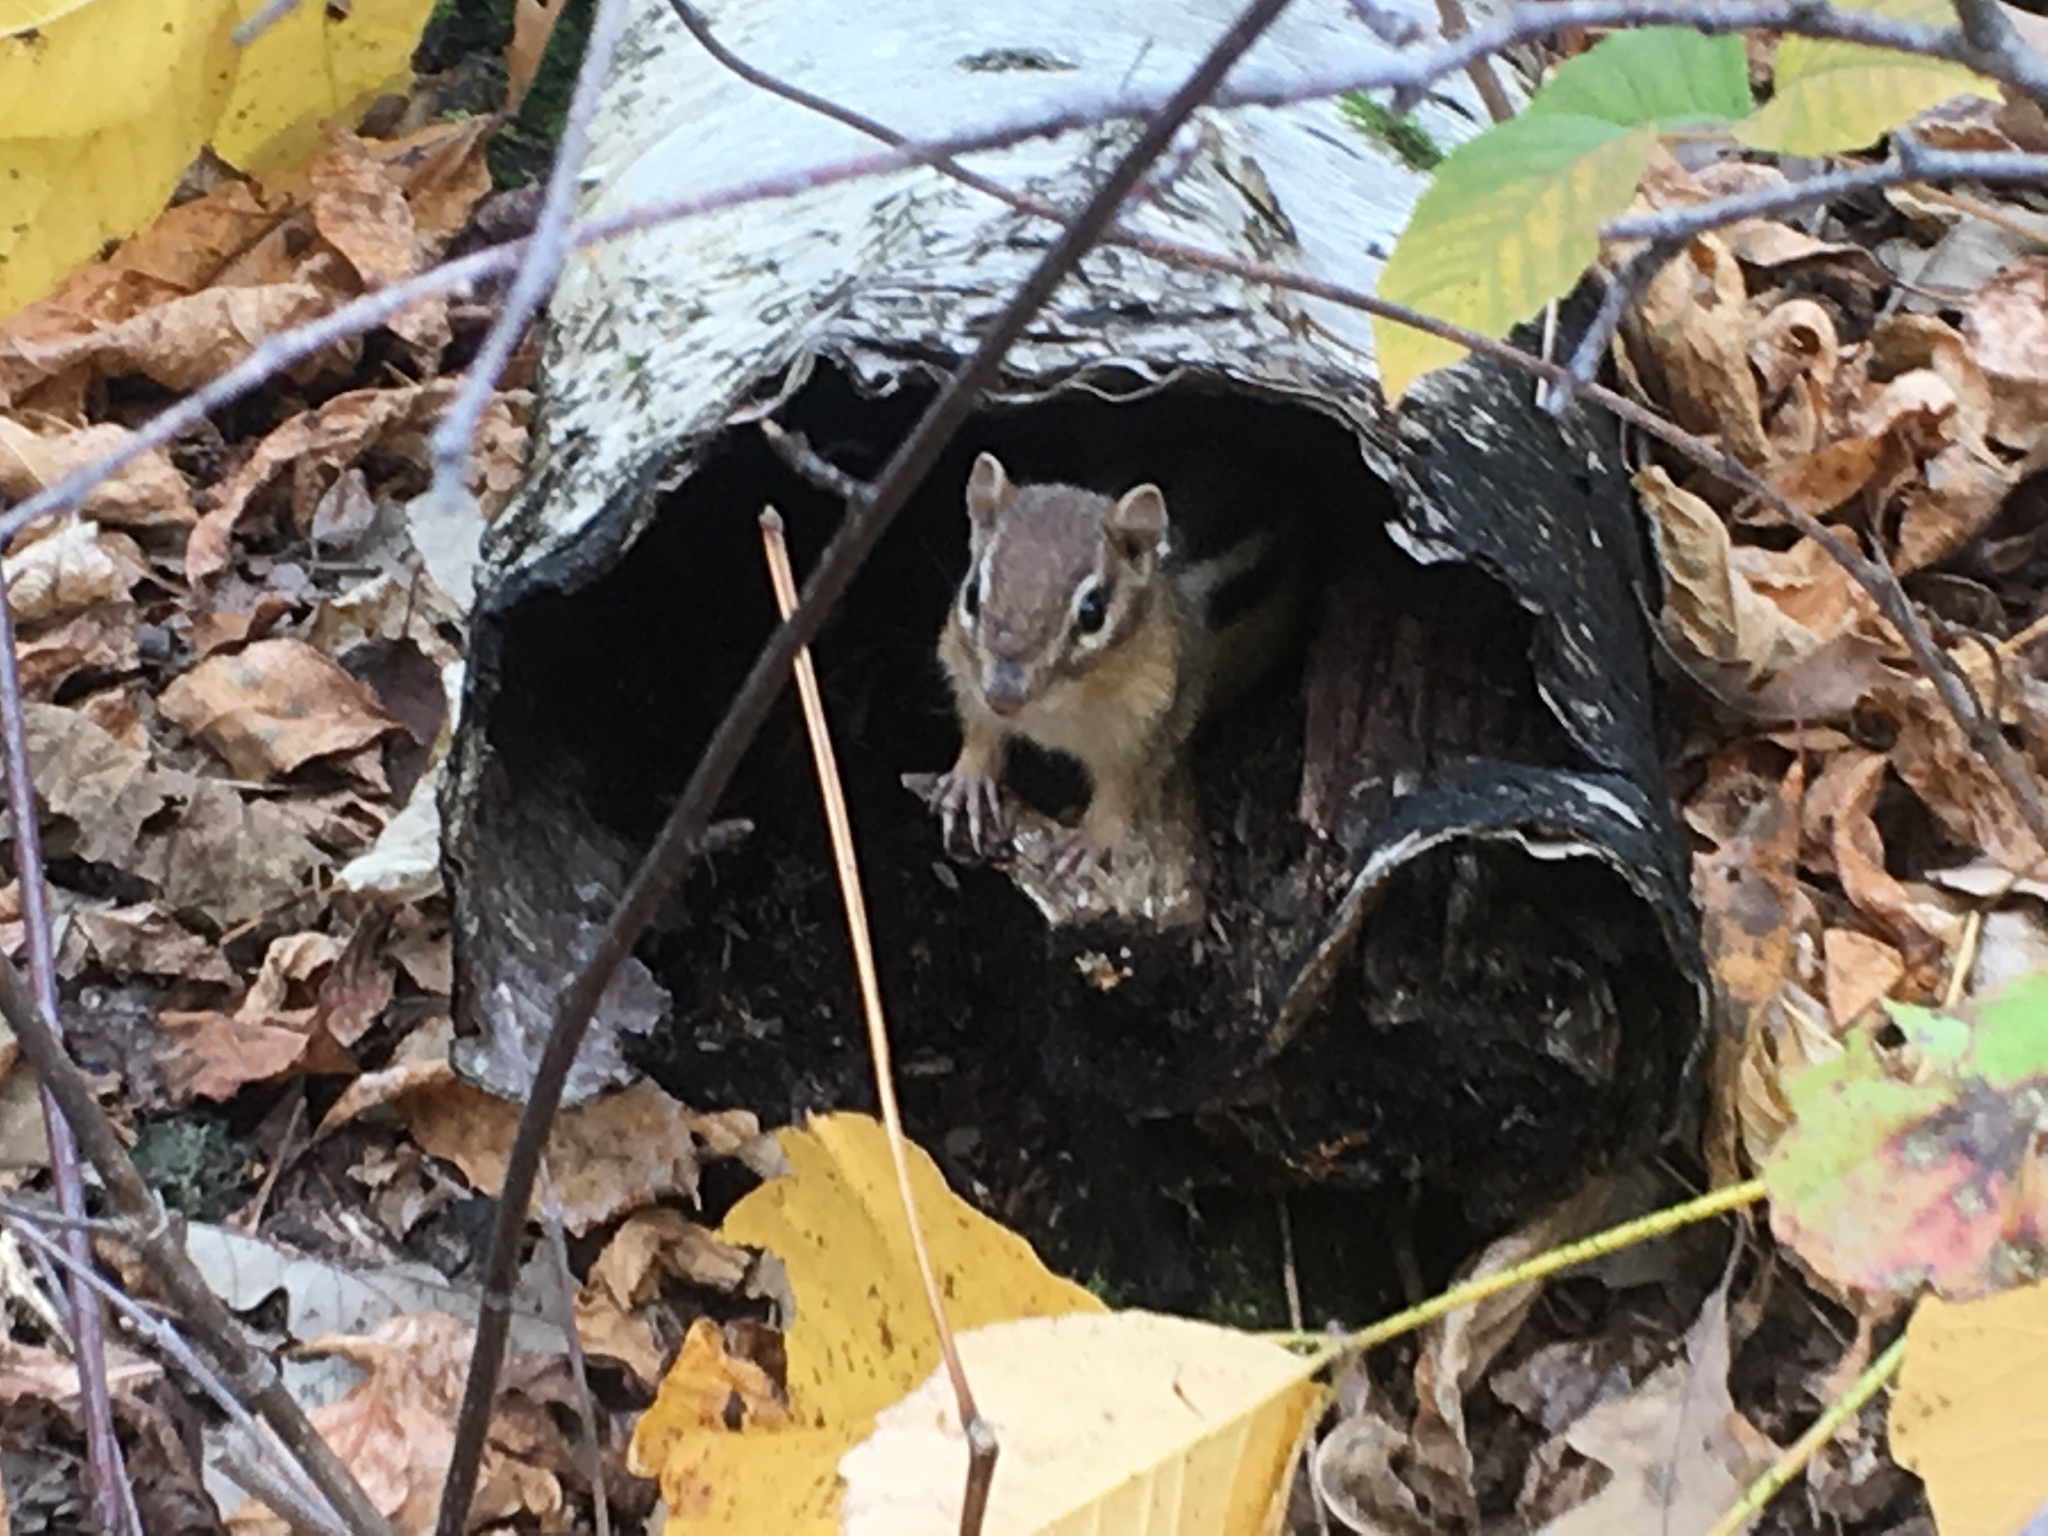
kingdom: Animalia
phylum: Chordata
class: Mammalia
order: Rodentia
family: Sciuridae
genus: Tamias
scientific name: Tamias striatus
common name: Eastern chipmunk
